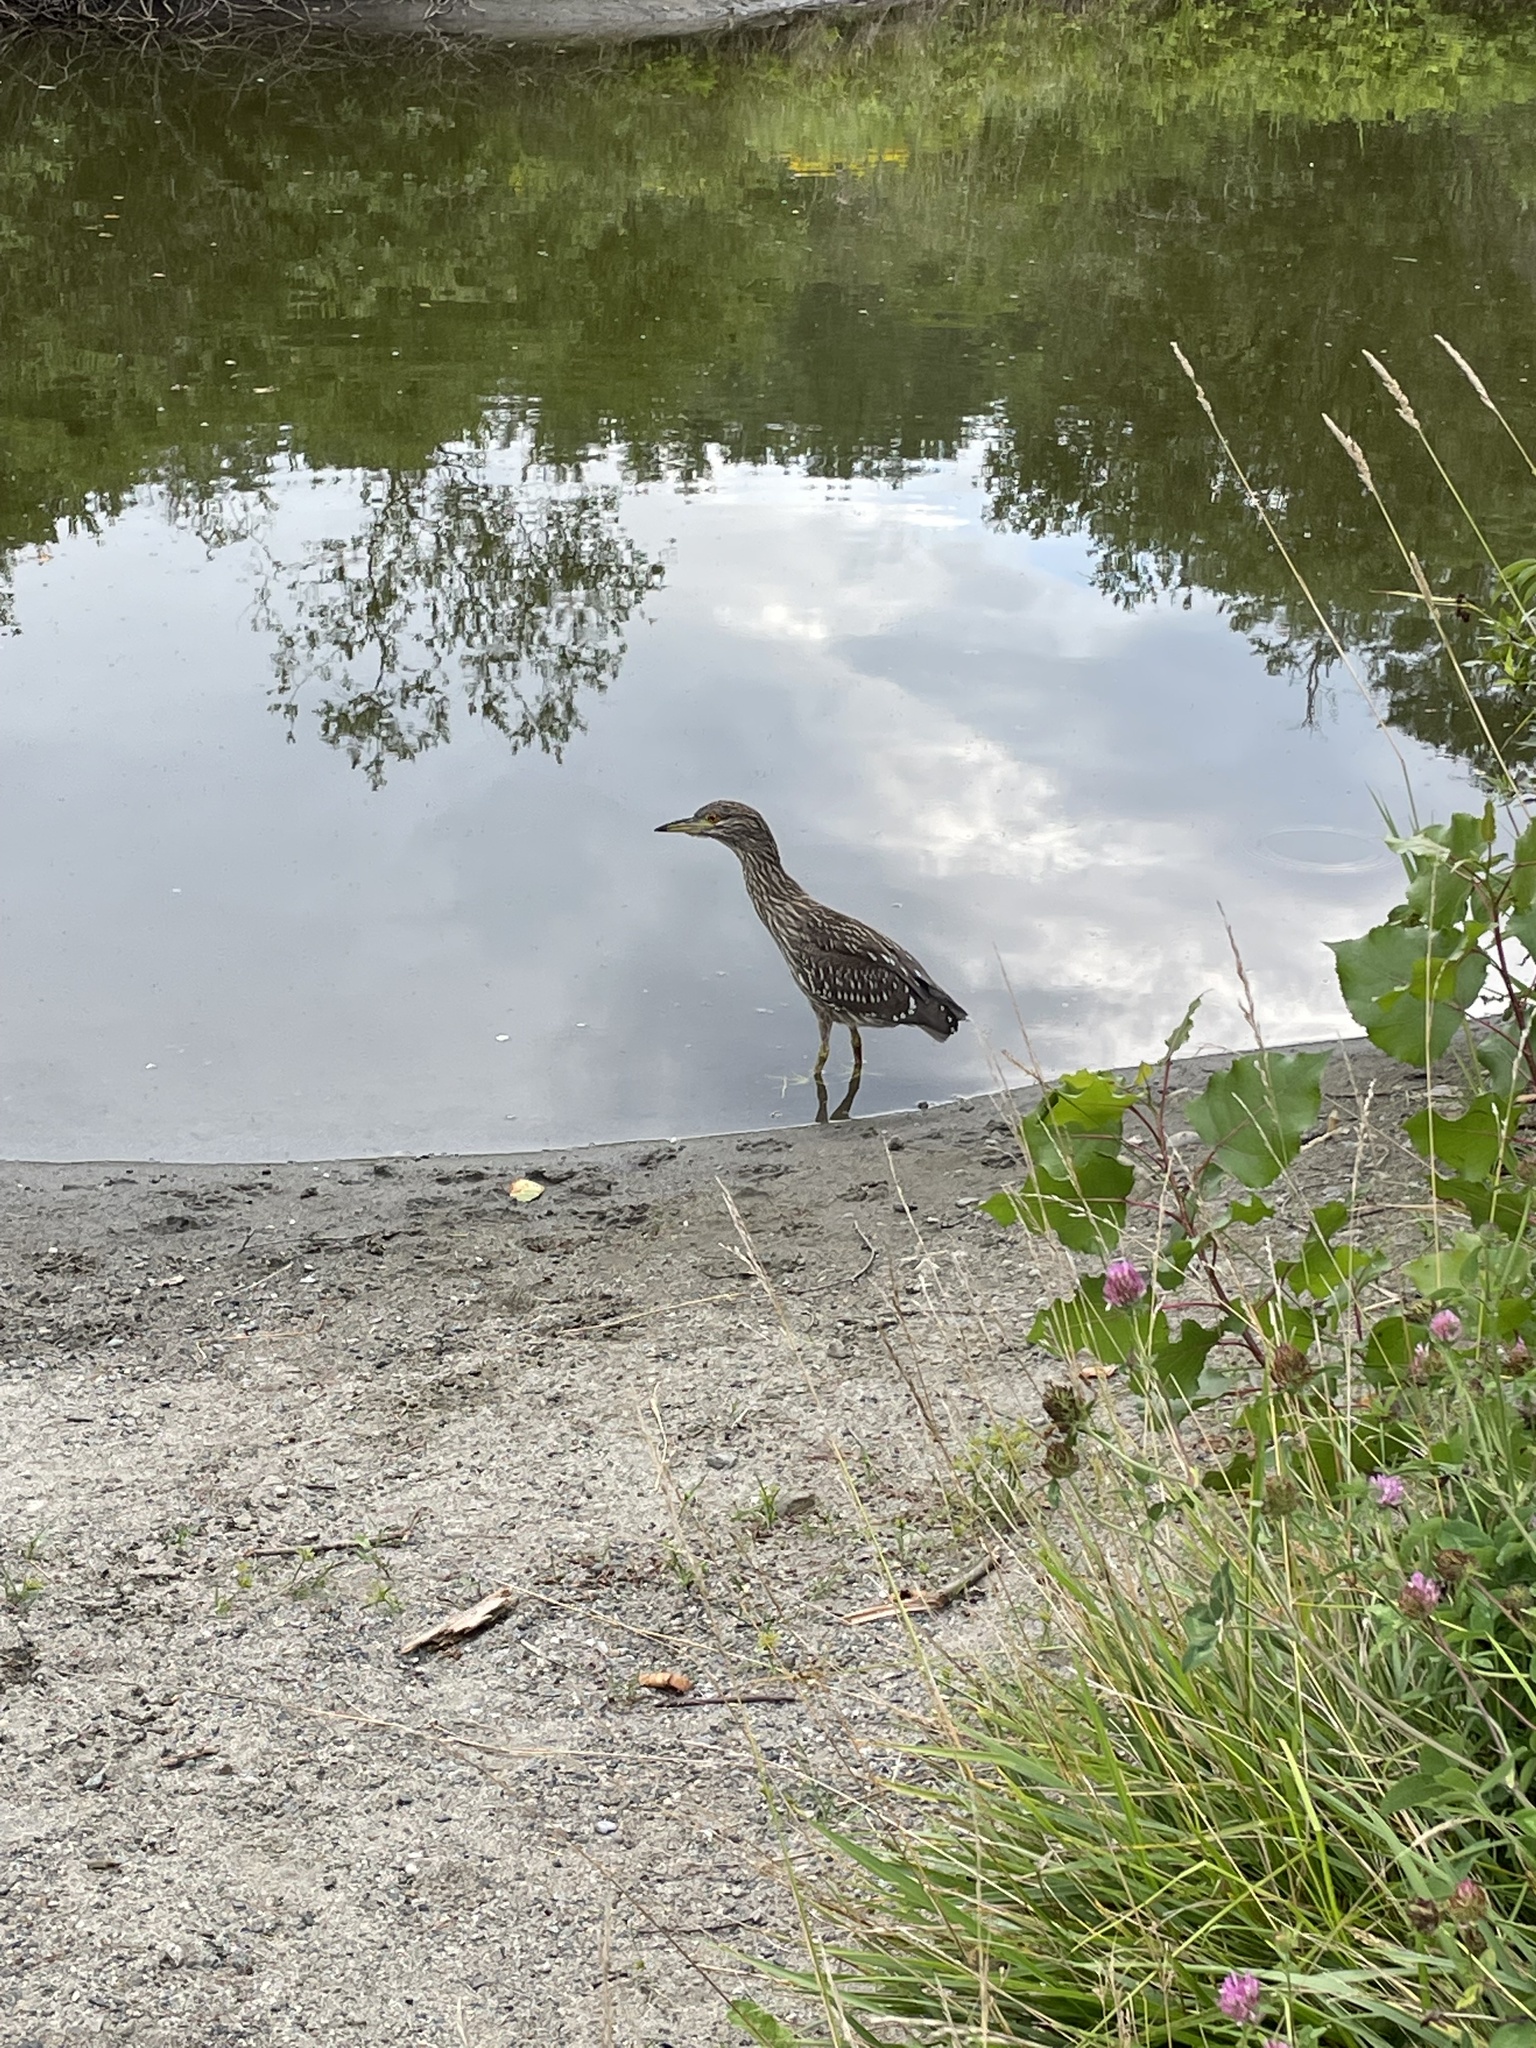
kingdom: Animalia
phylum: Chordata
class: Aves
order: Pelecaniformes
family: Ardeidae
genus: Nycticorax
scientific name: Nycticorax nycticorax
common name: Black-crowned night heron
